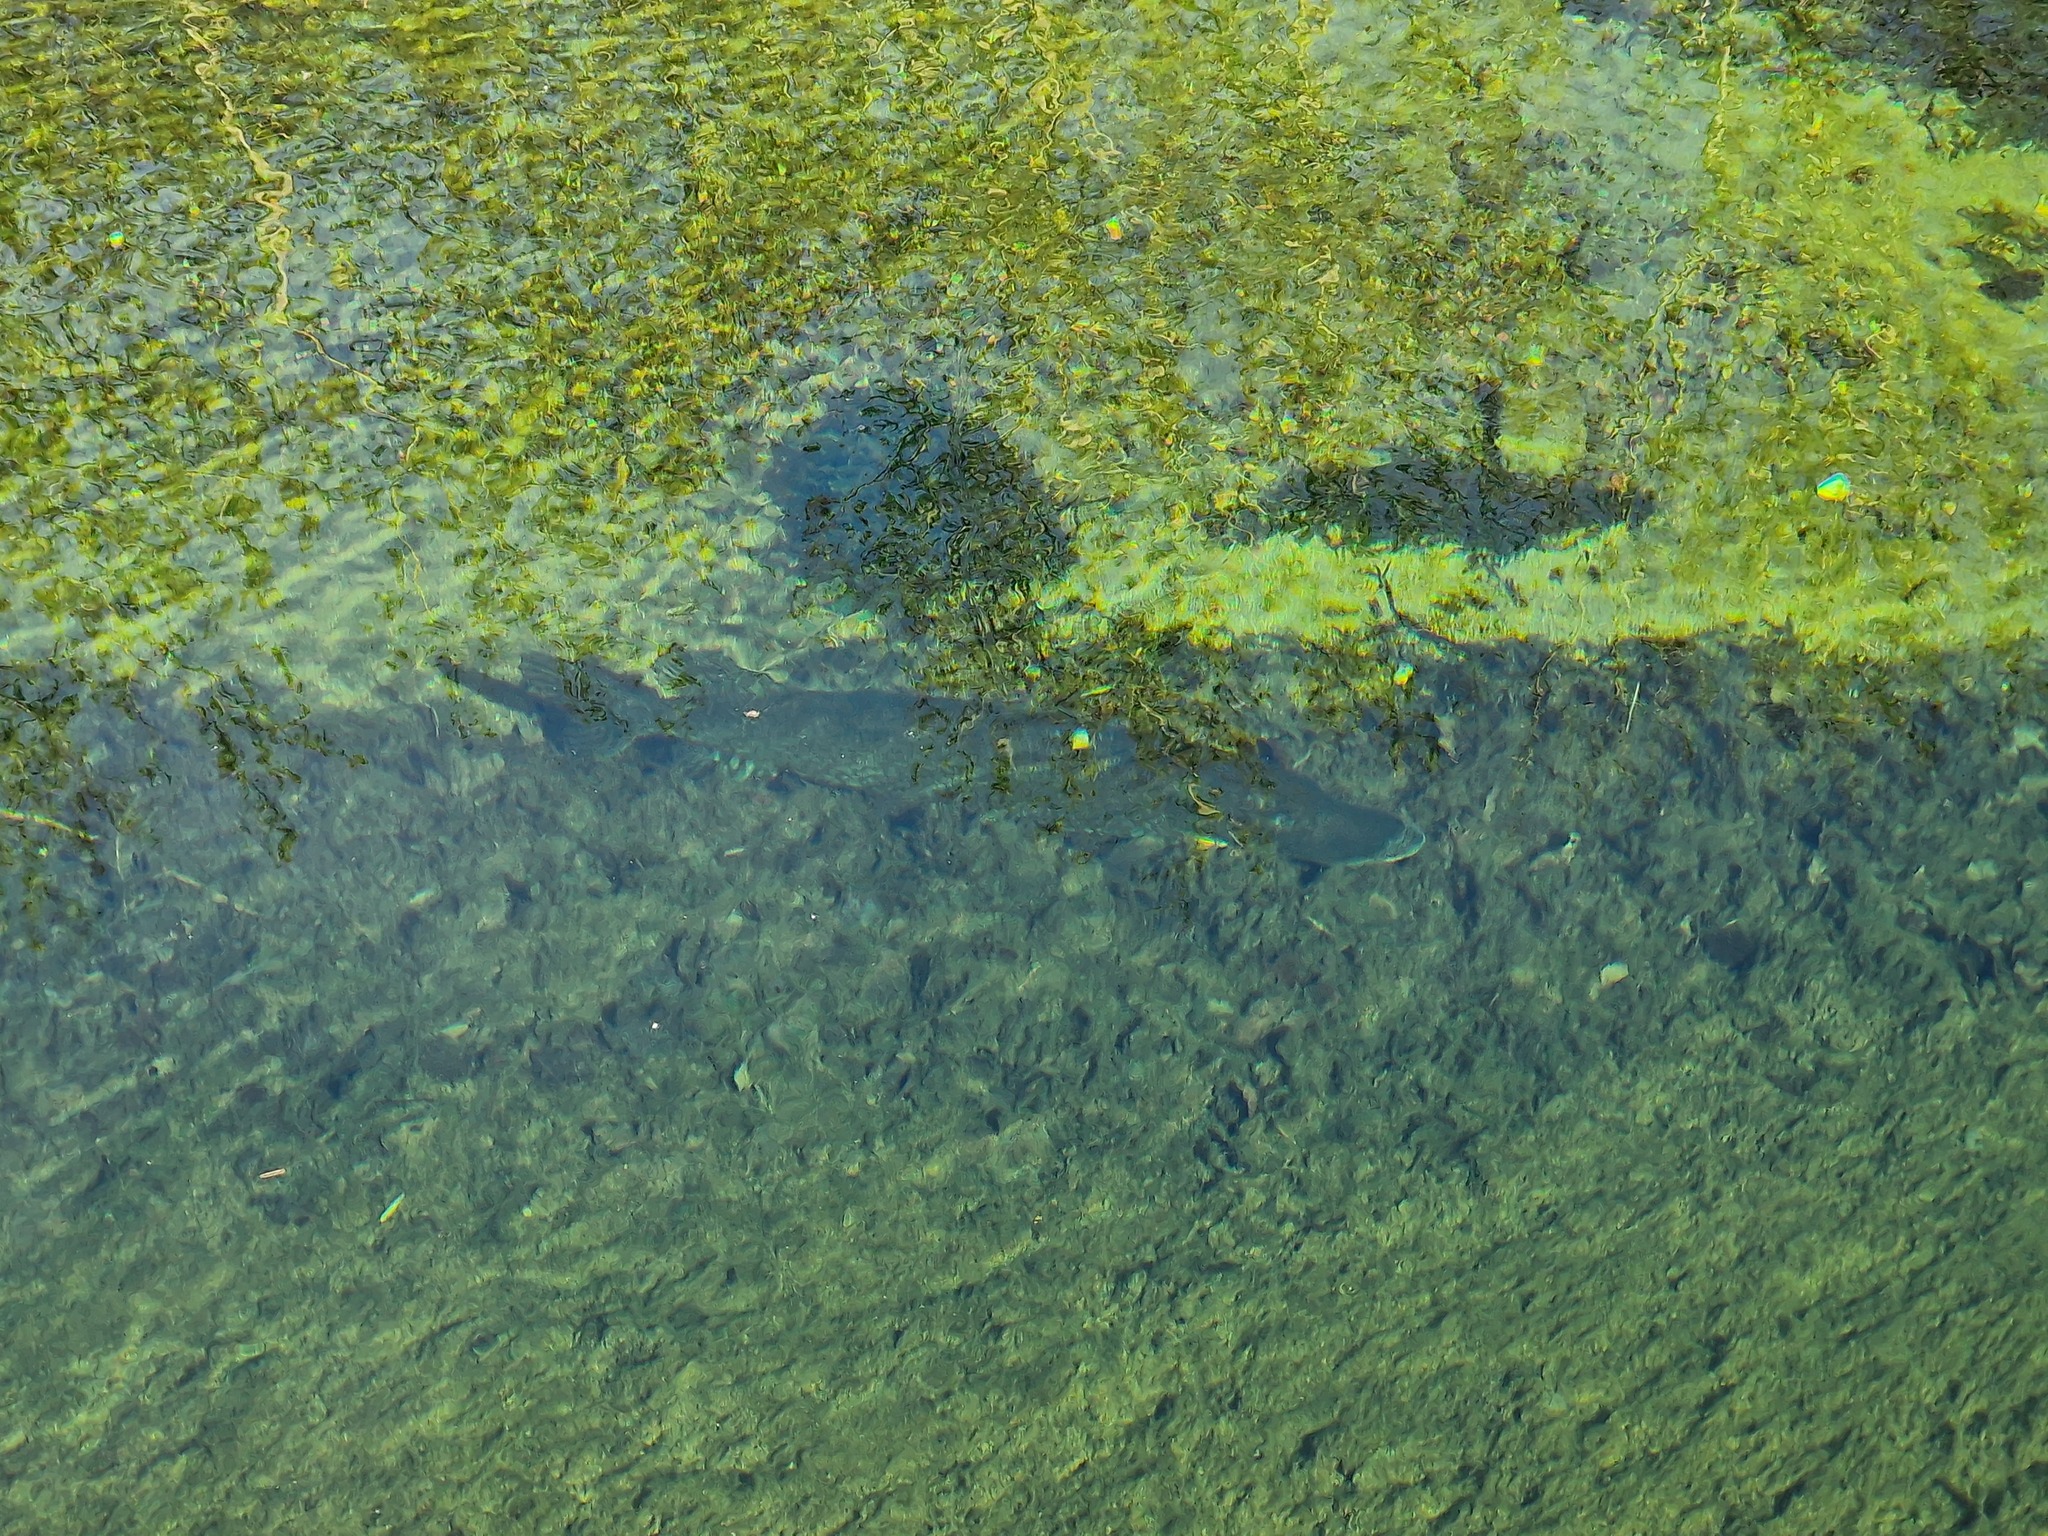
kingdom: Animalia
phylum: Chordata
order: Esociformes
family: Esocidae
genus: Esox
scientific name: Esox lucius
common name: Northern pike
